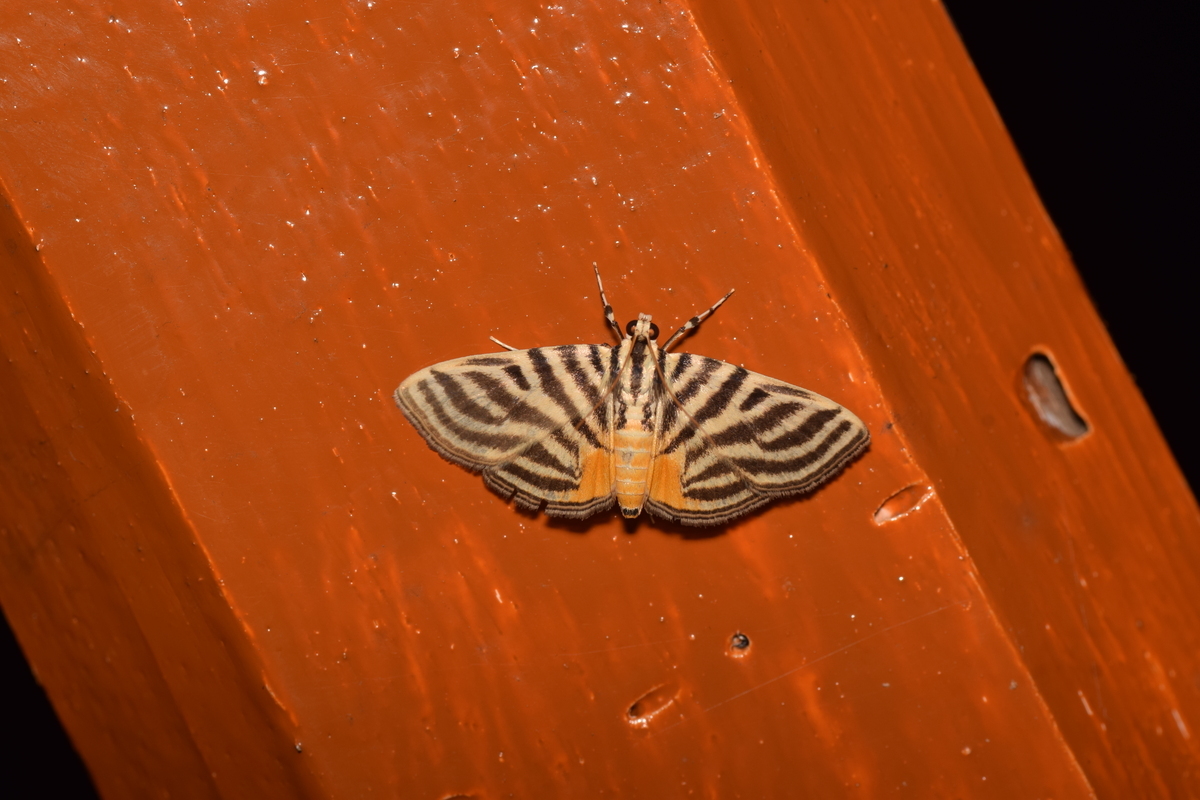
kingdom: Animalia
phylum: Arthropoda
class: Insecta
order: Lepidoptera
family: Crambidae
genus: Dichocrocis
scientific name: Dichocrocis rigidalis
